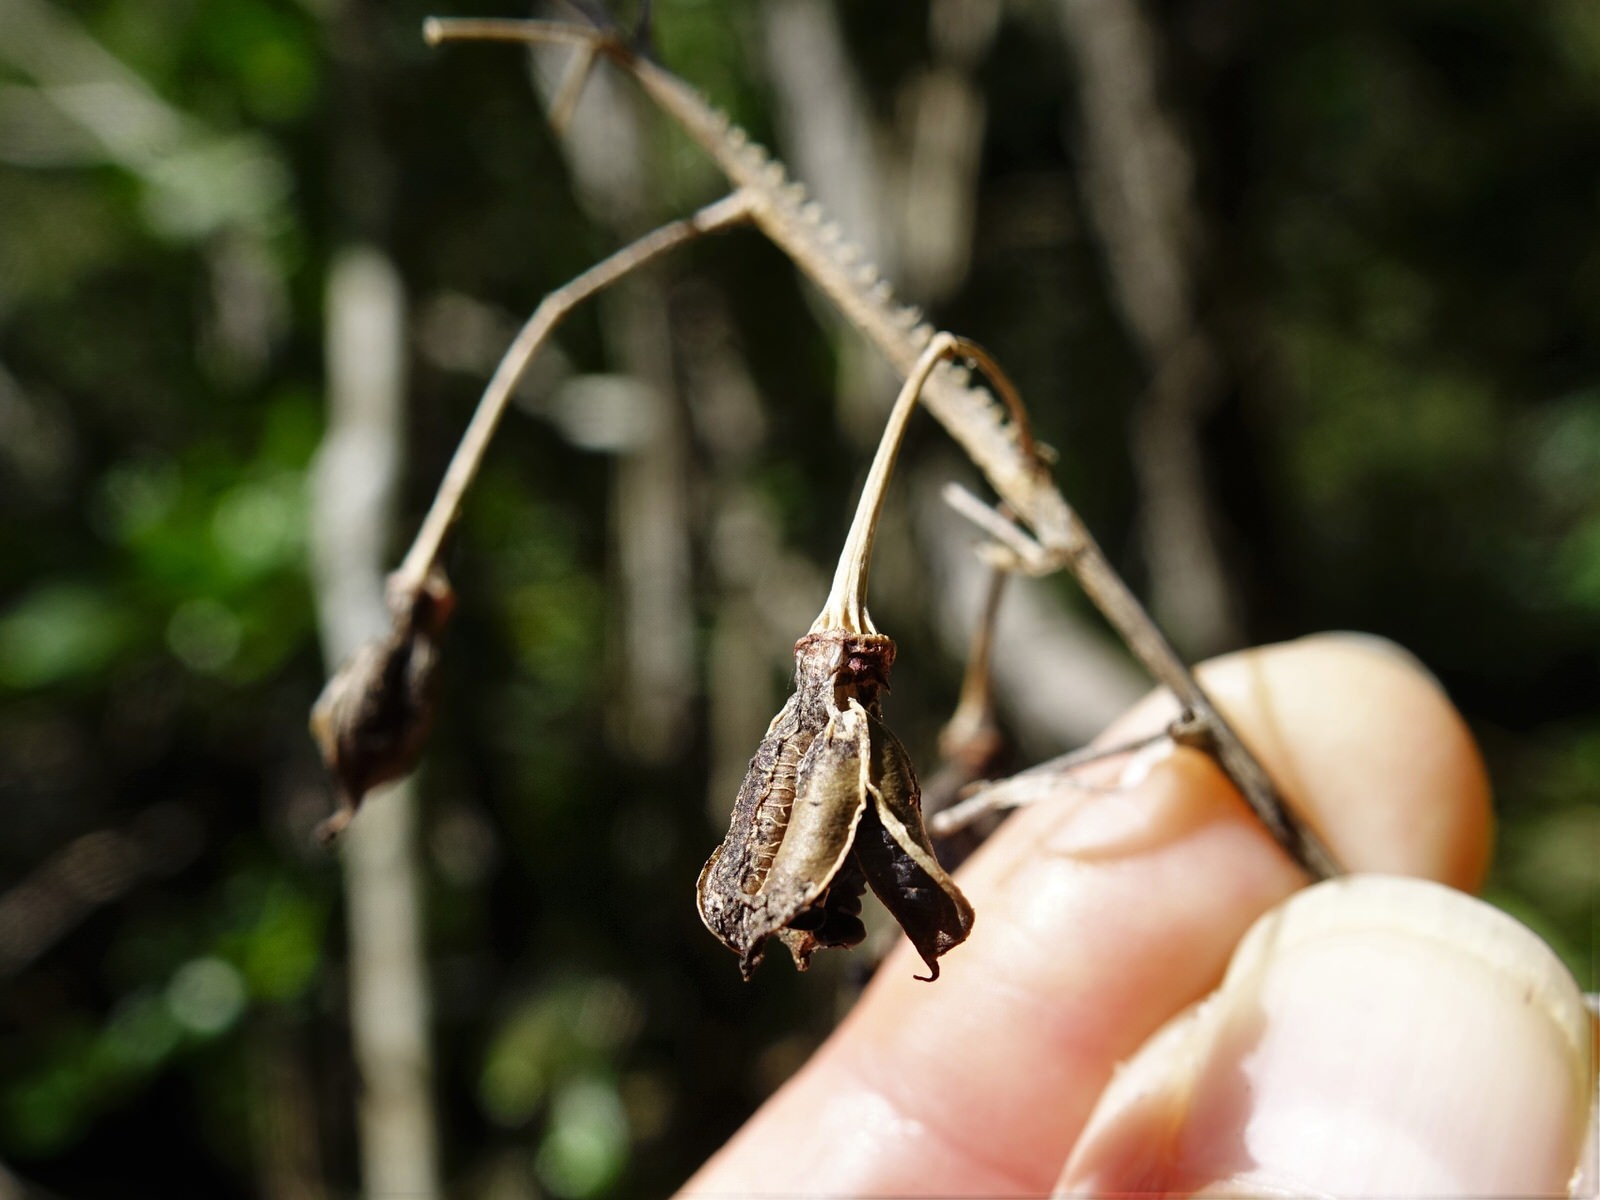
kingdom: Plantae
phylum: Tracheophyta
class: Liliopsida
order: Asparagales
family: Asparagaceae
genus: Arthropodium
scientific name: Arthropodium cirratum
